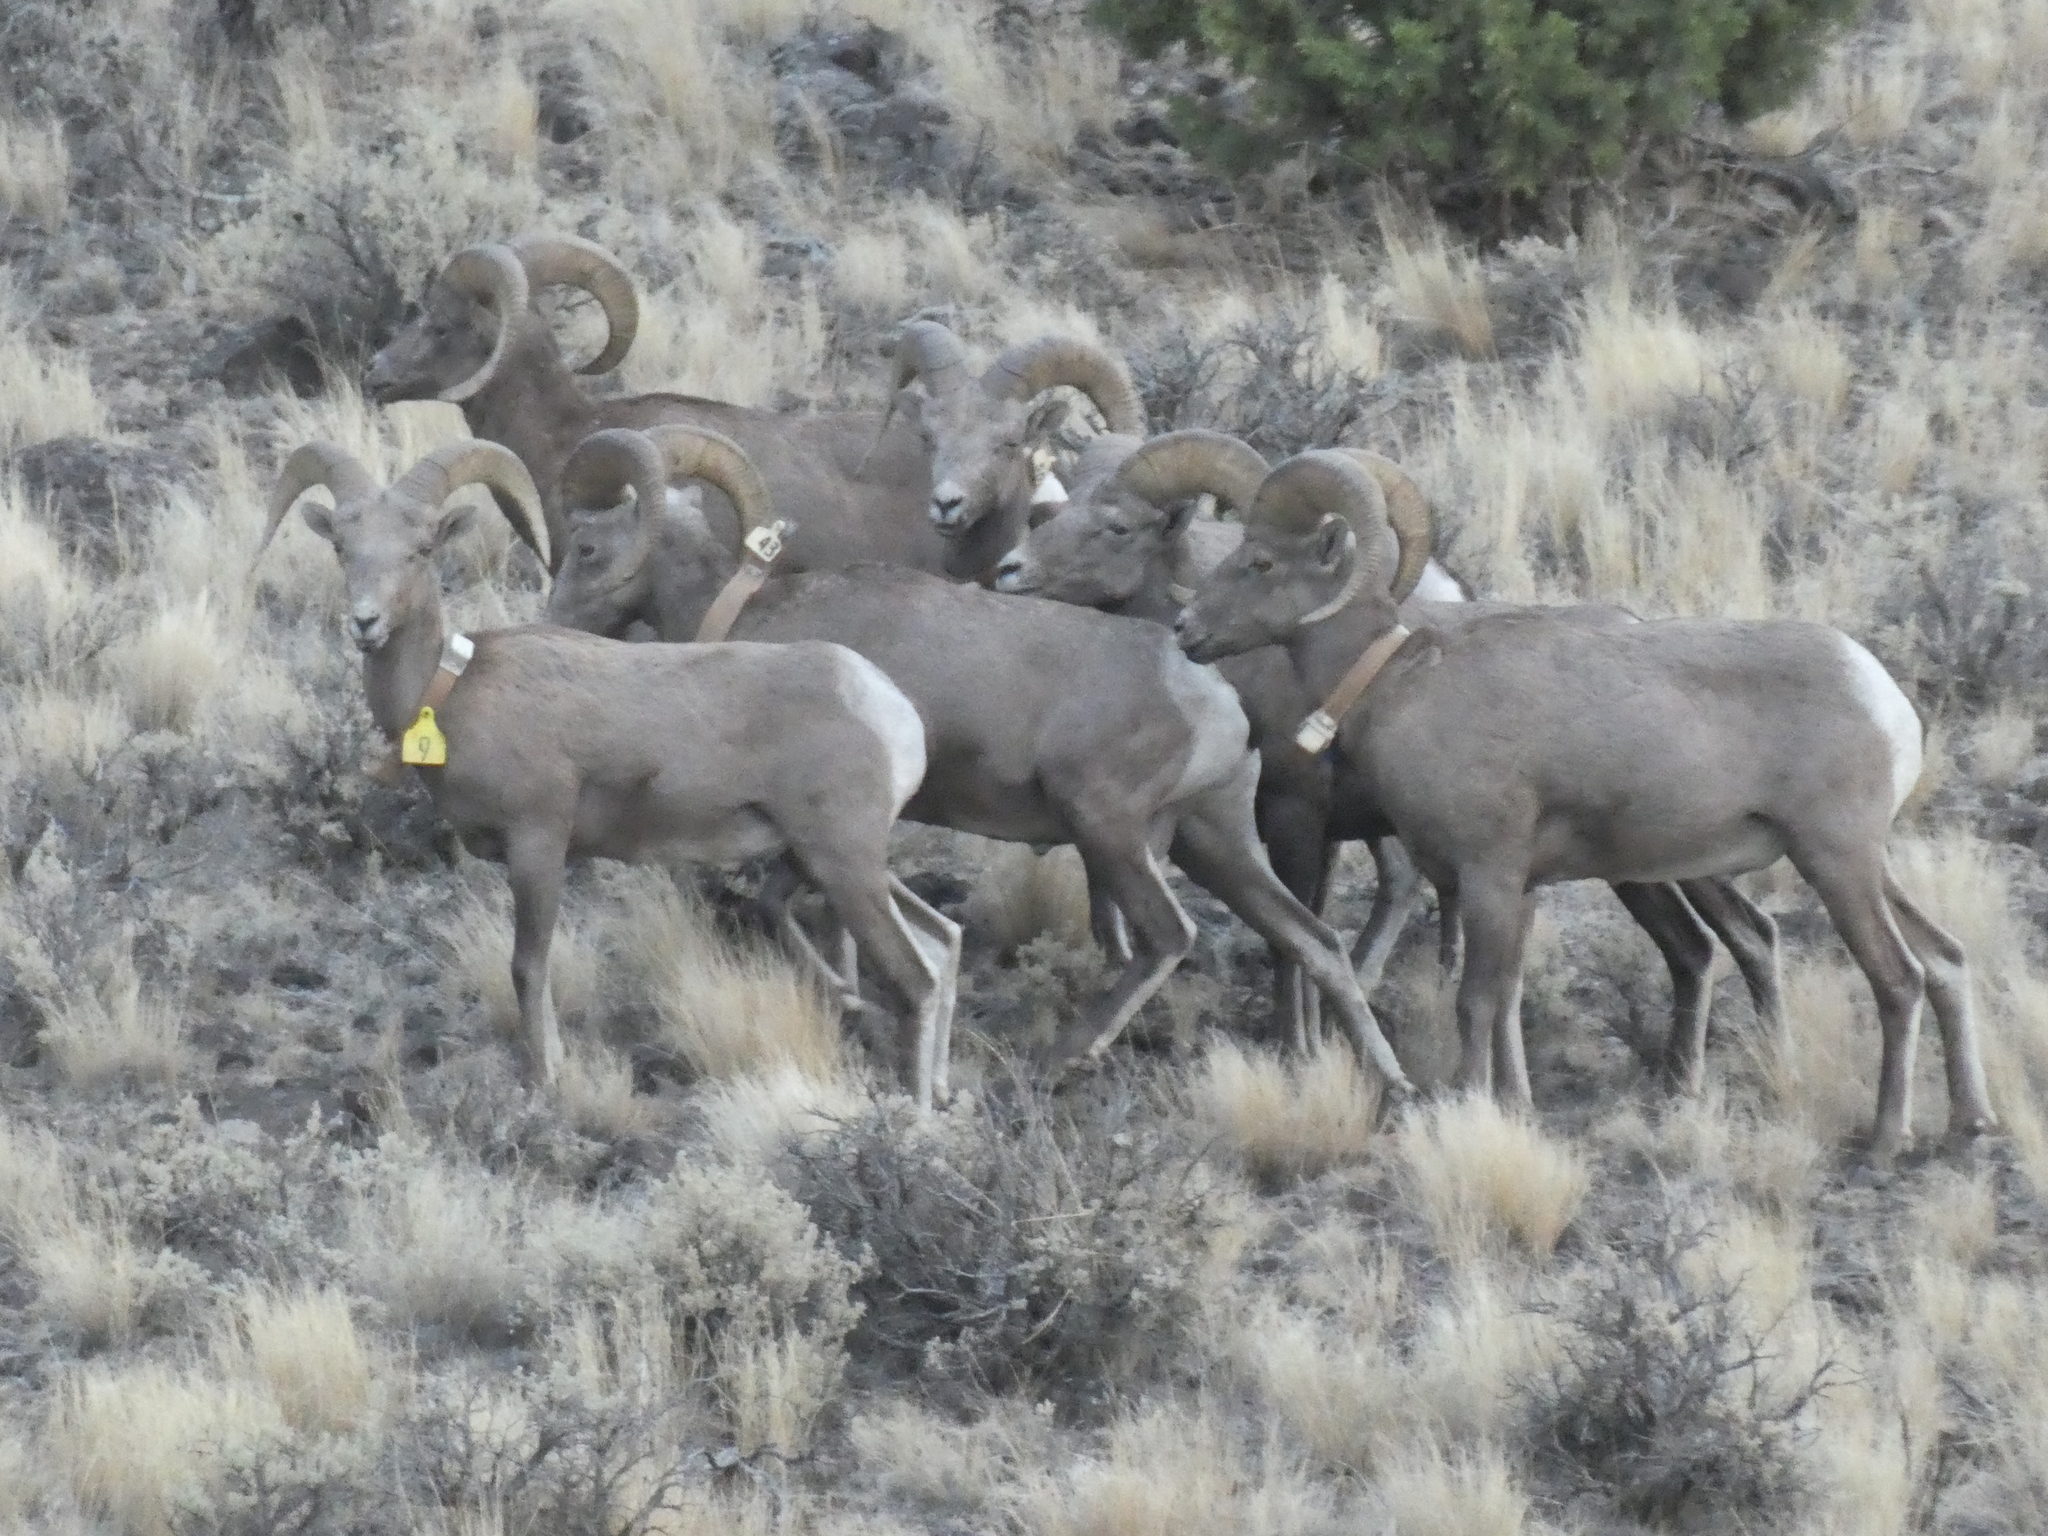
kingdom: Animalia
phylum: Chordata
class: Mammalia
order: Artiodactyla
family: Bovidae
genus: Ovis
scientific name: Ovis canadensis
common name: Bighorn sheep
